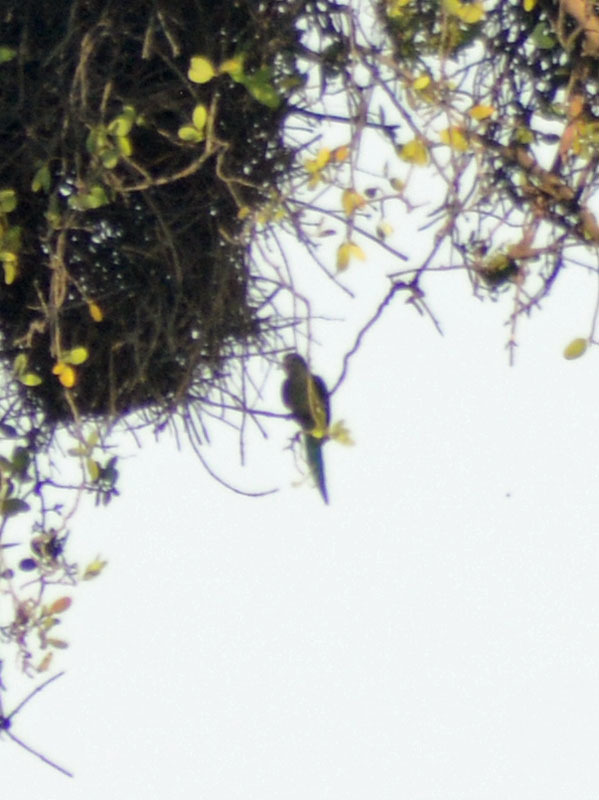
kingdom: Animalia
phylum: Chordata
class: Aves
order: Psittaciformes
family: Psittacidae
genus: Myiopsitta
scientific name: Myiopsitta monachus
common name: Monk parakeet
